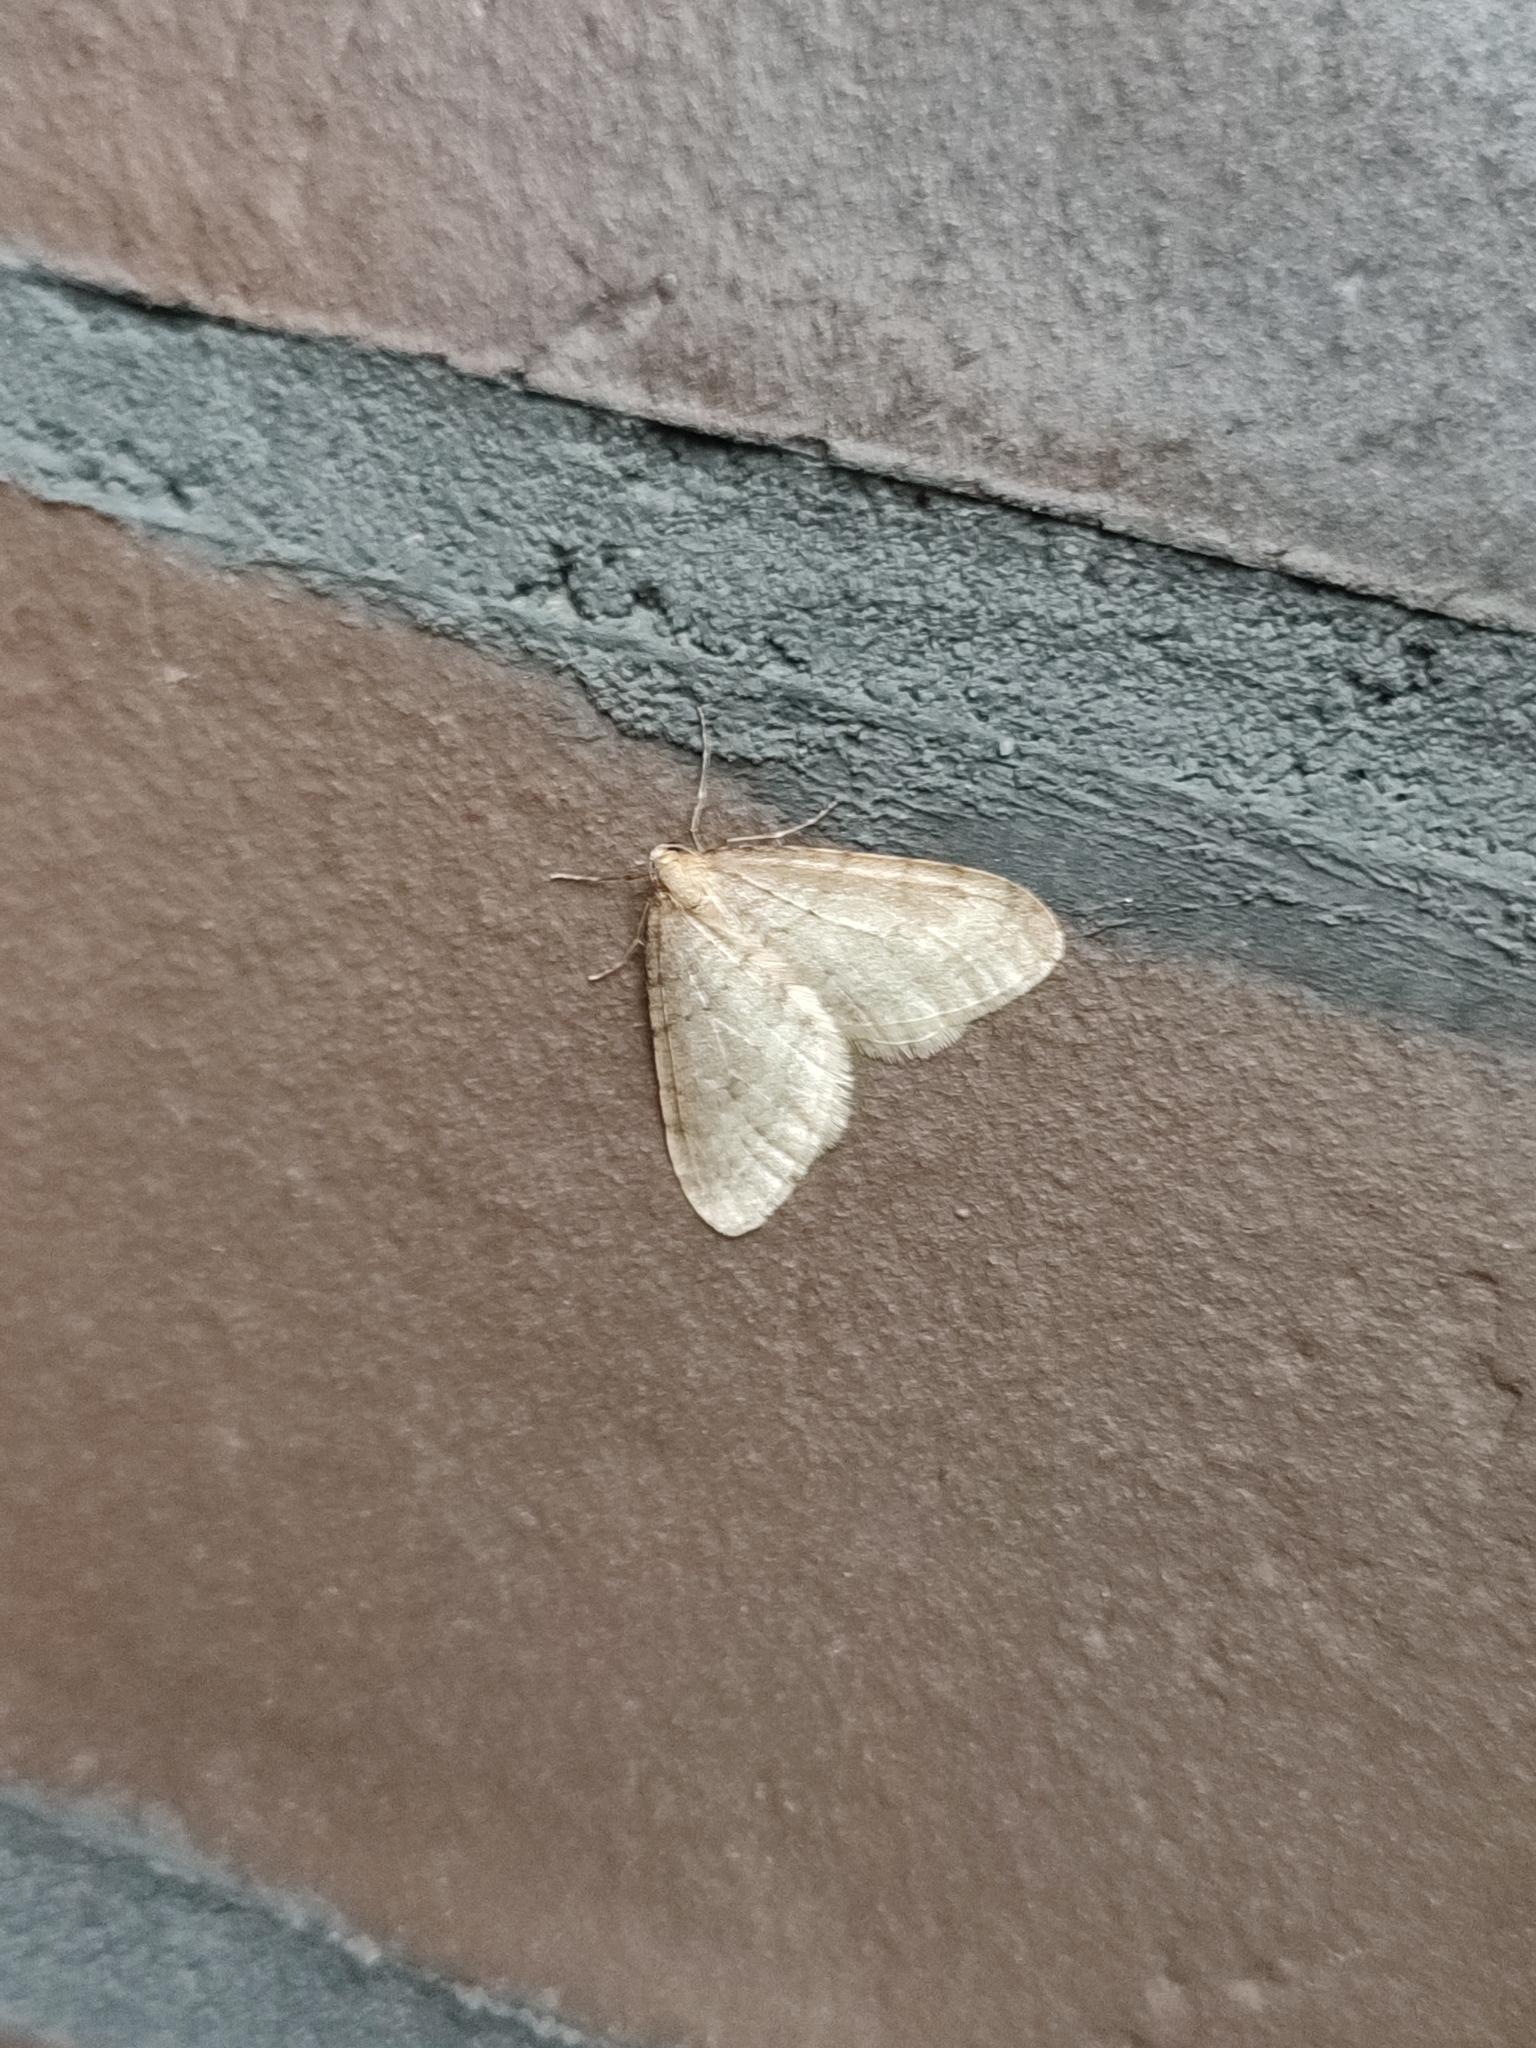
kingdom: Animalia
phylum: Arthropoda
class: Insecta
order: Lepidoptera
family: Geometridae
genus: Operophtera
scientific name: Operophtera fagata
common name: Northern winter moth
